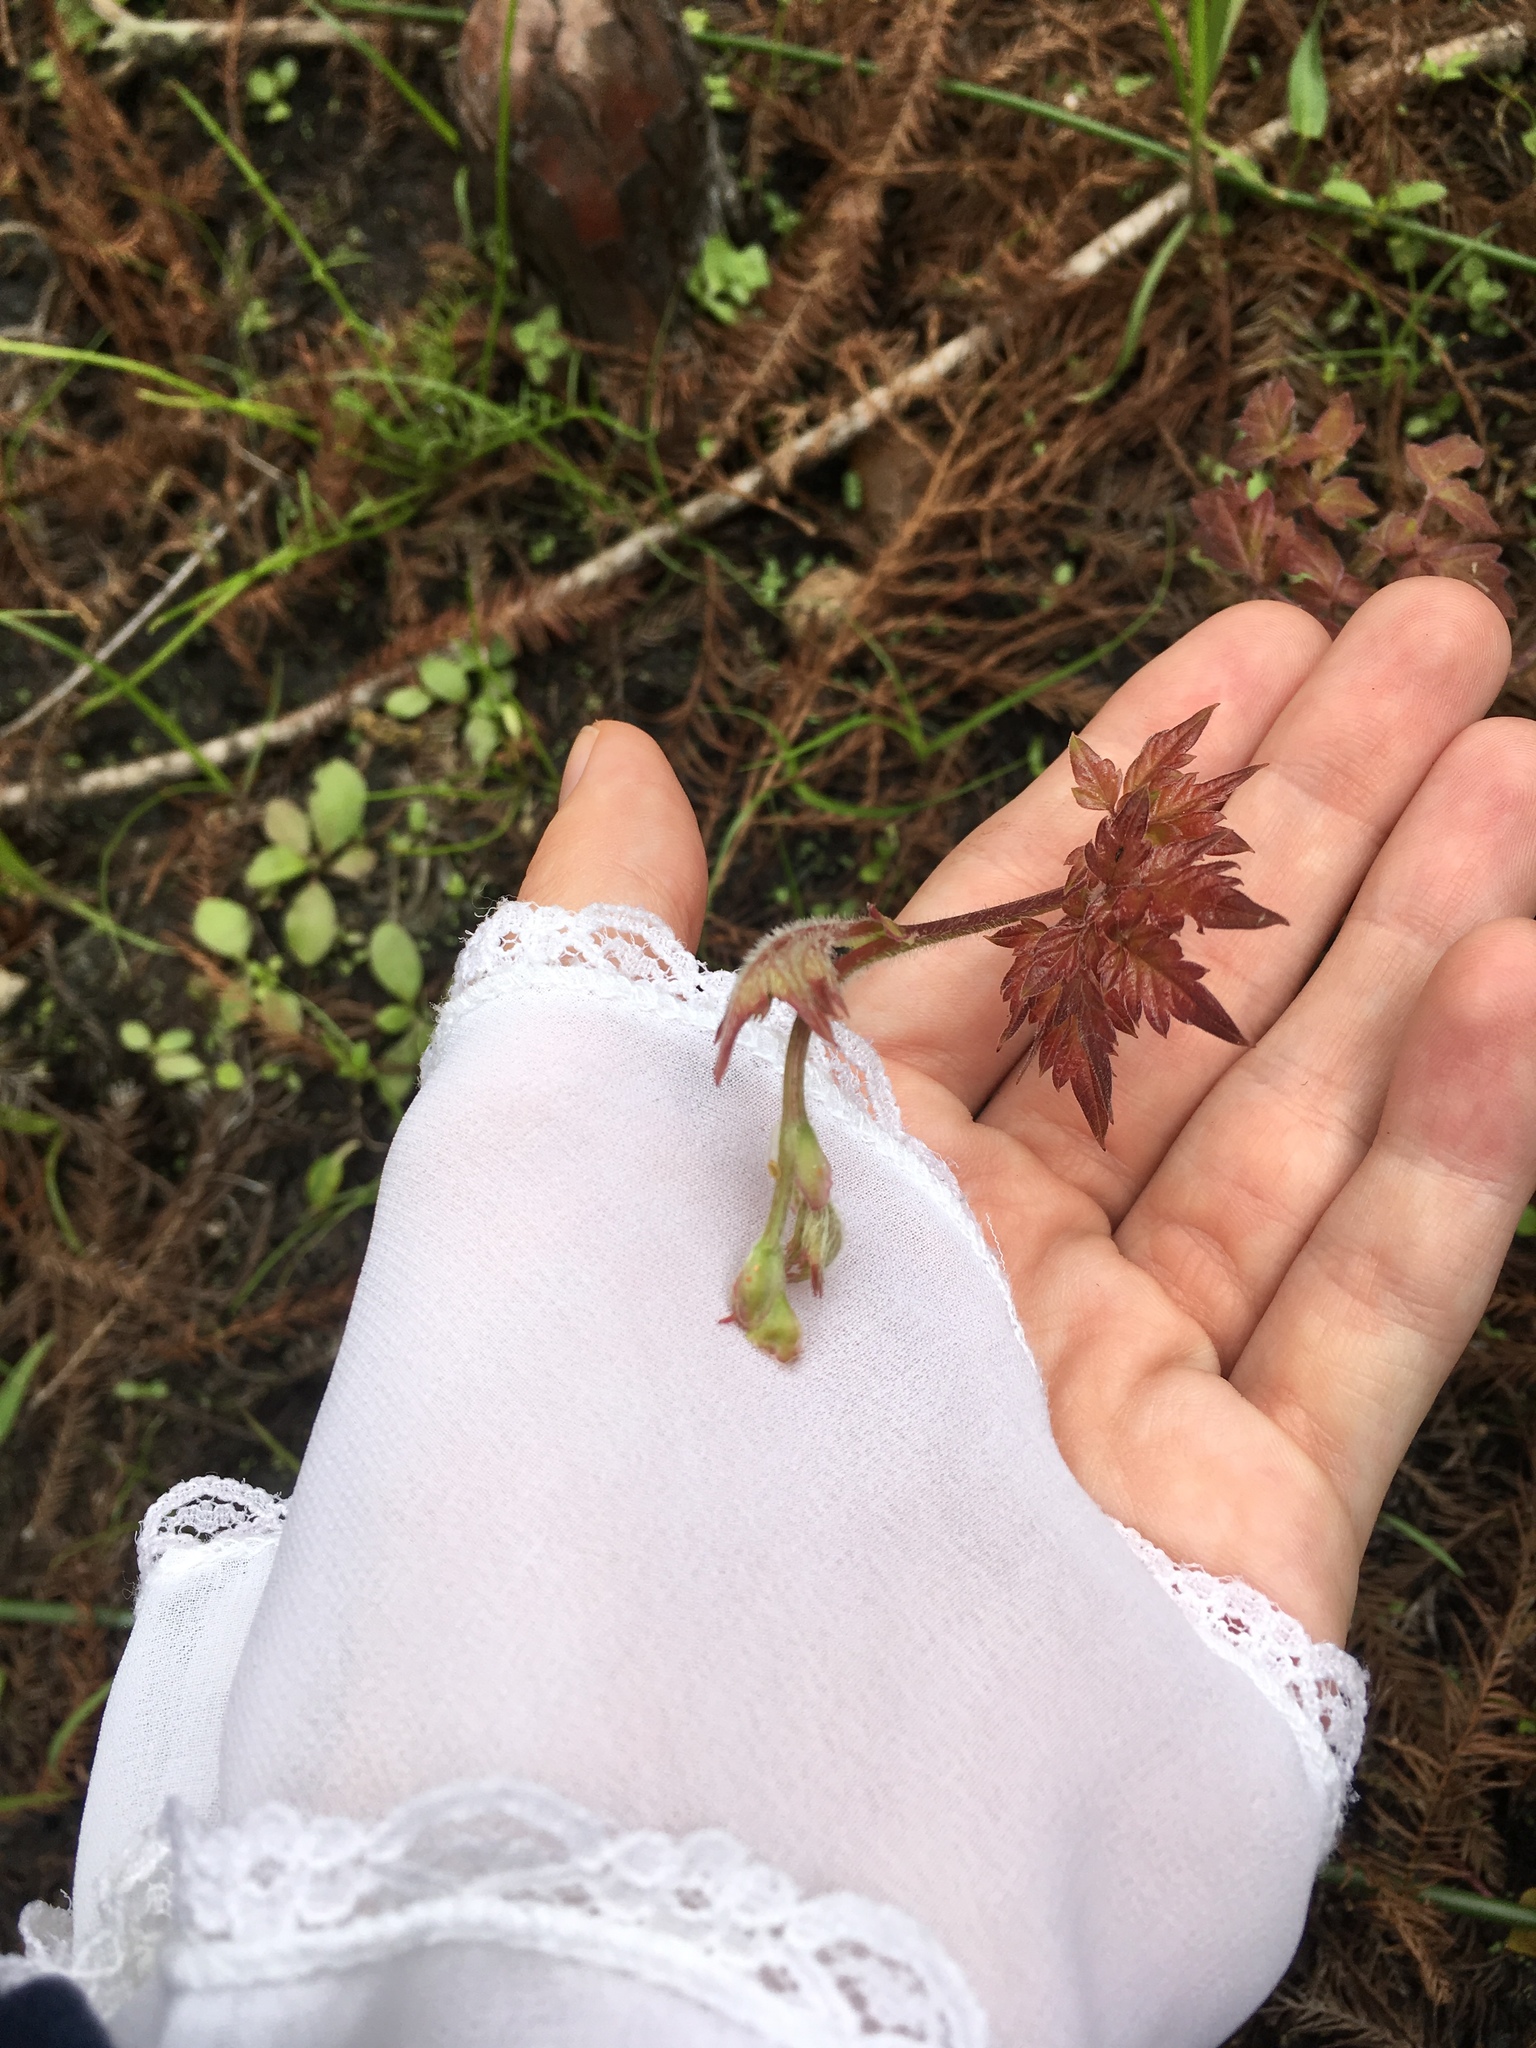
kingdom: Plantae
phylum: Tracheophyta
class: Magnoliopsida
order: Vitales
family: Vitaceae
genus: Nekemias
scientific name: Nekemias arborea
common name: Peppervine
